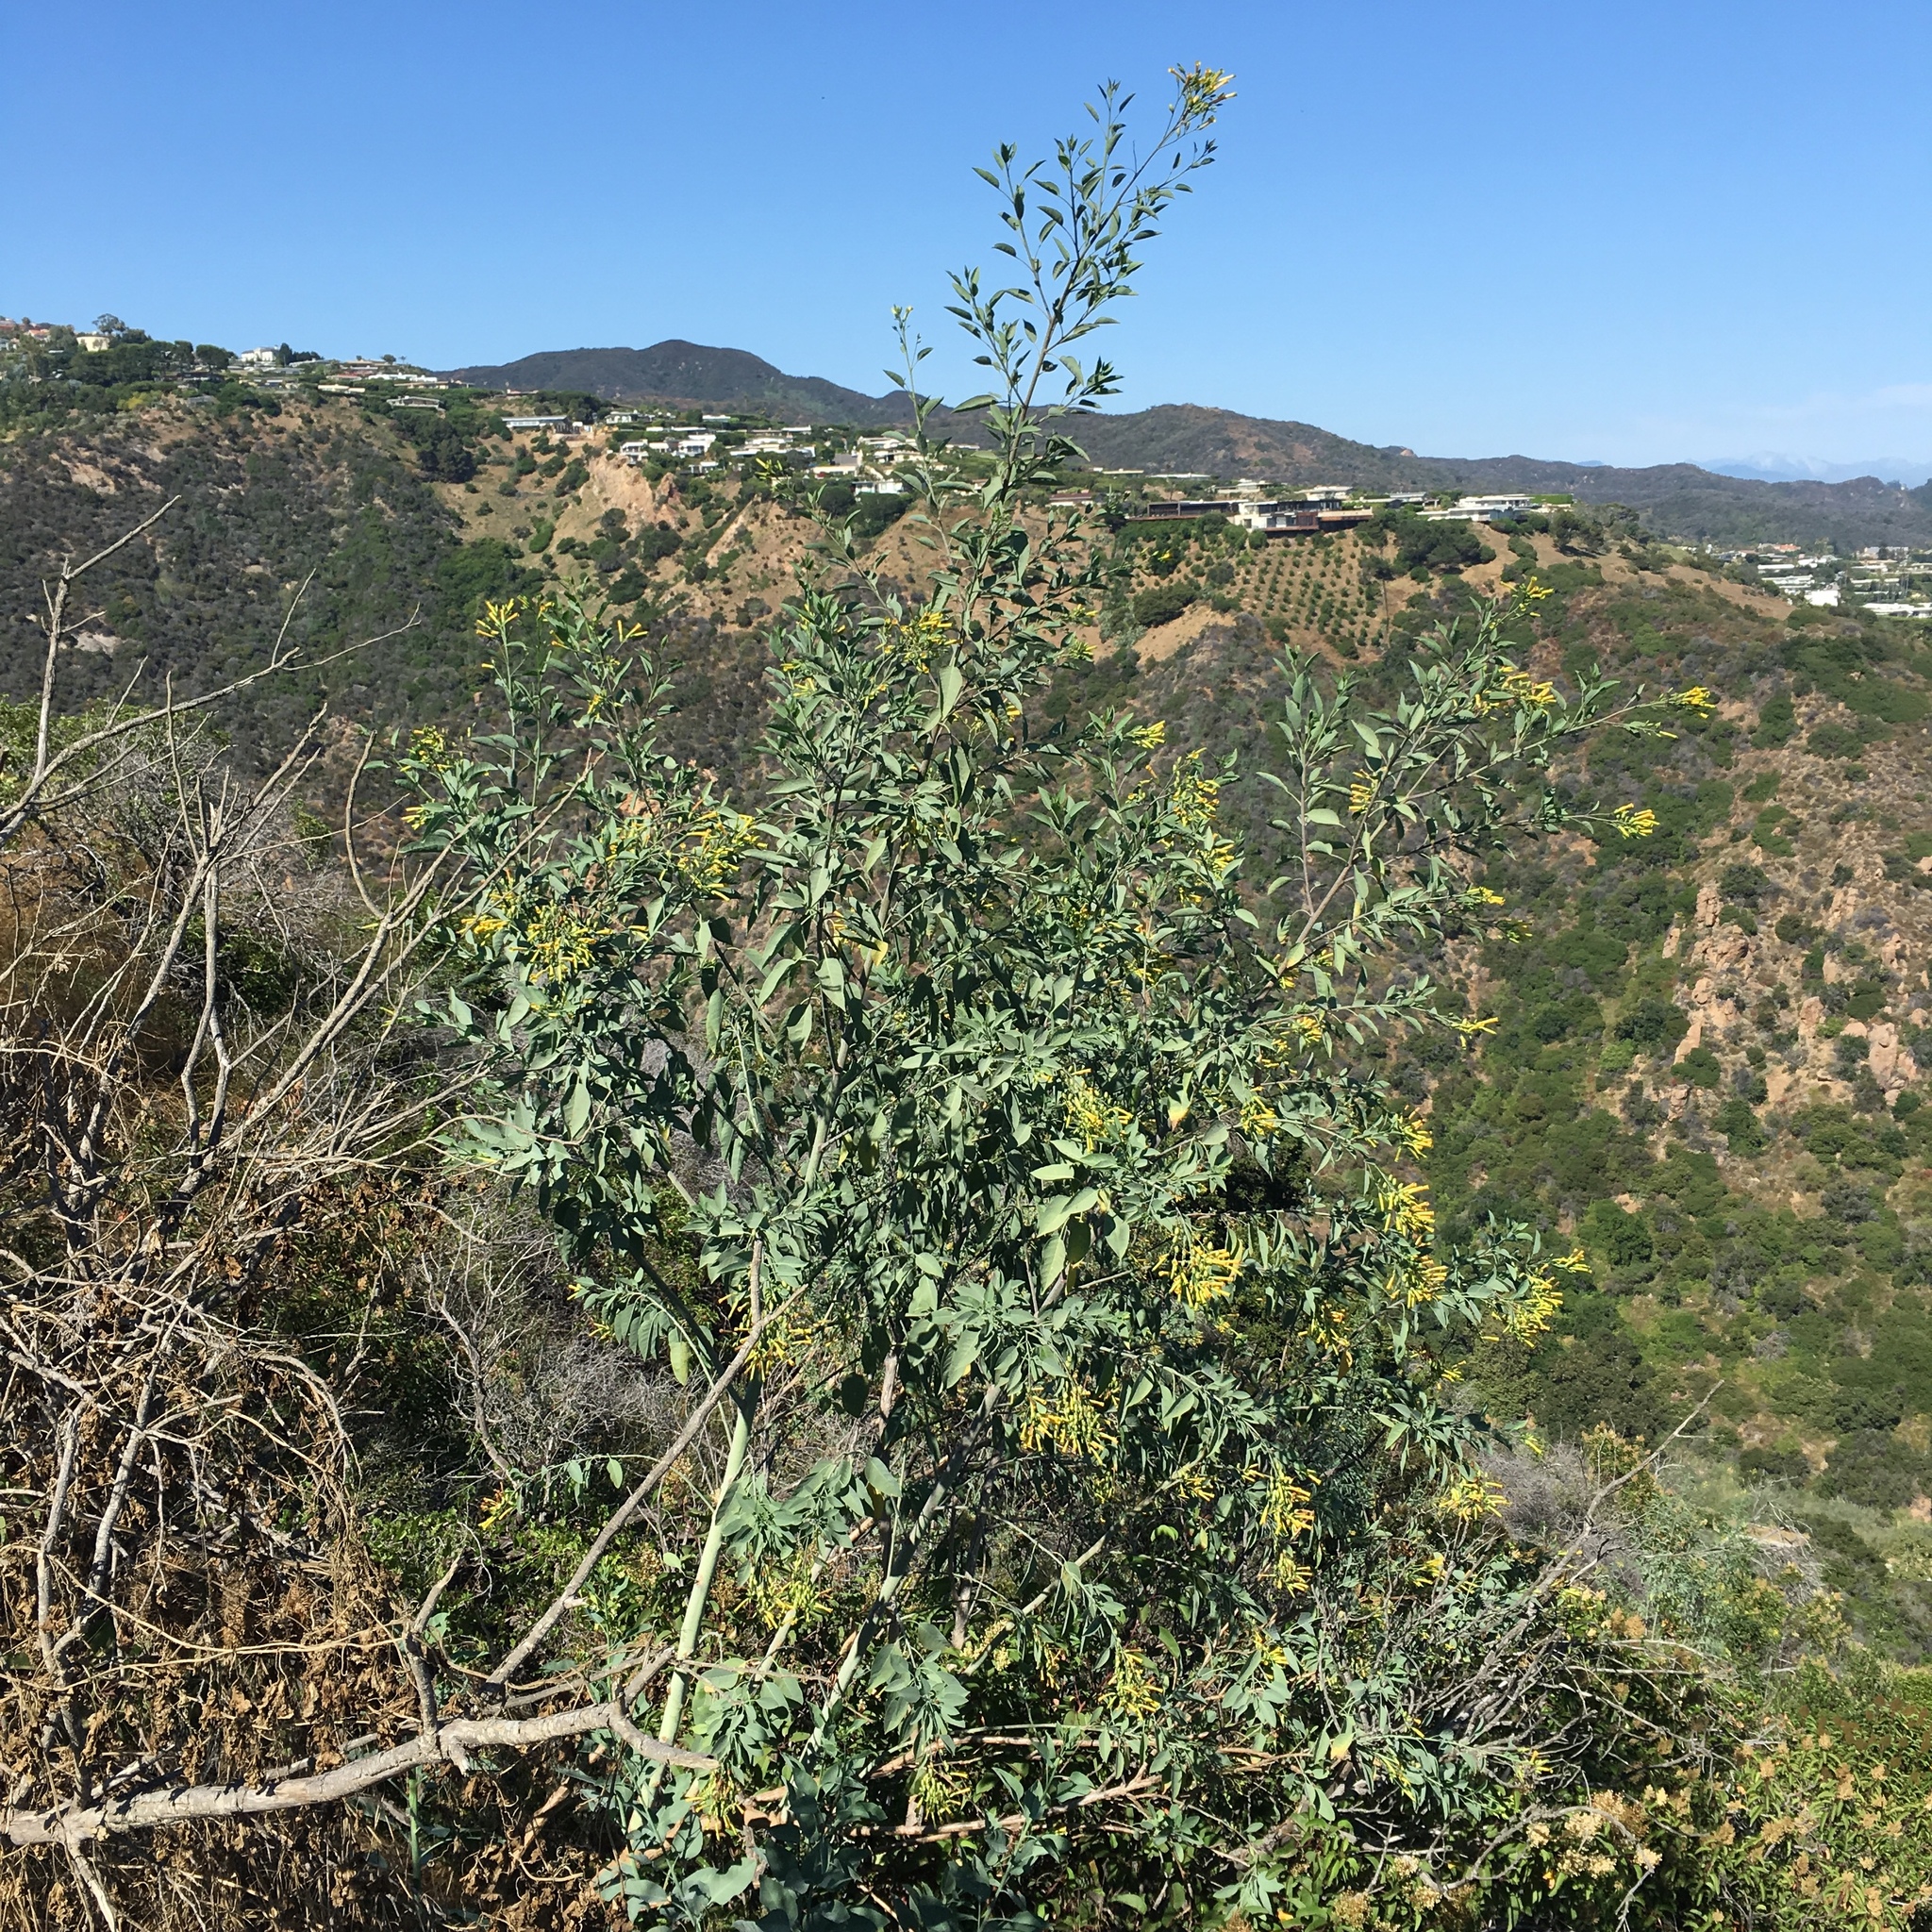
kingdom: Plantae
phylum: Tracheophyta
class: Magnoliopsida
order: Solanales
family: Solanaceae
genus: Nicotiana
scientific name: Nicotiana glauca
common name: Tree tobacco
